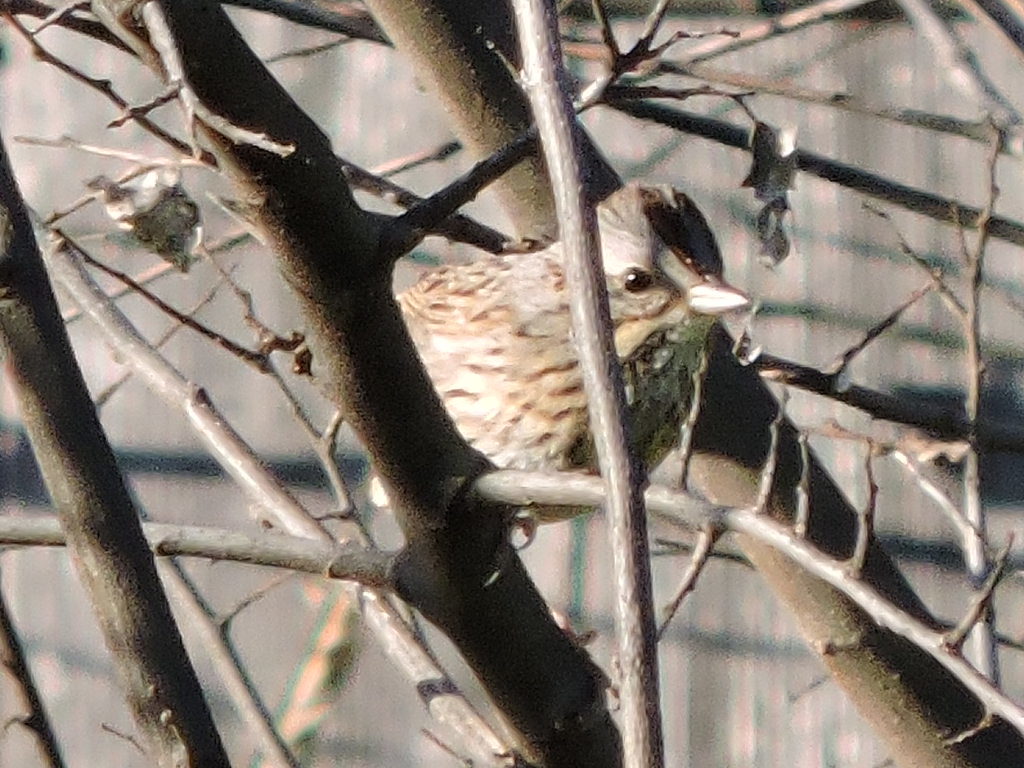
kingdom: Animalia
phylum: Chordata
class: Aves
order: Passeriformes
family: Passerellidae
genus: Melospiza
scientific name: Melospiza lincolnii
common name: Lincoln's sparrow
